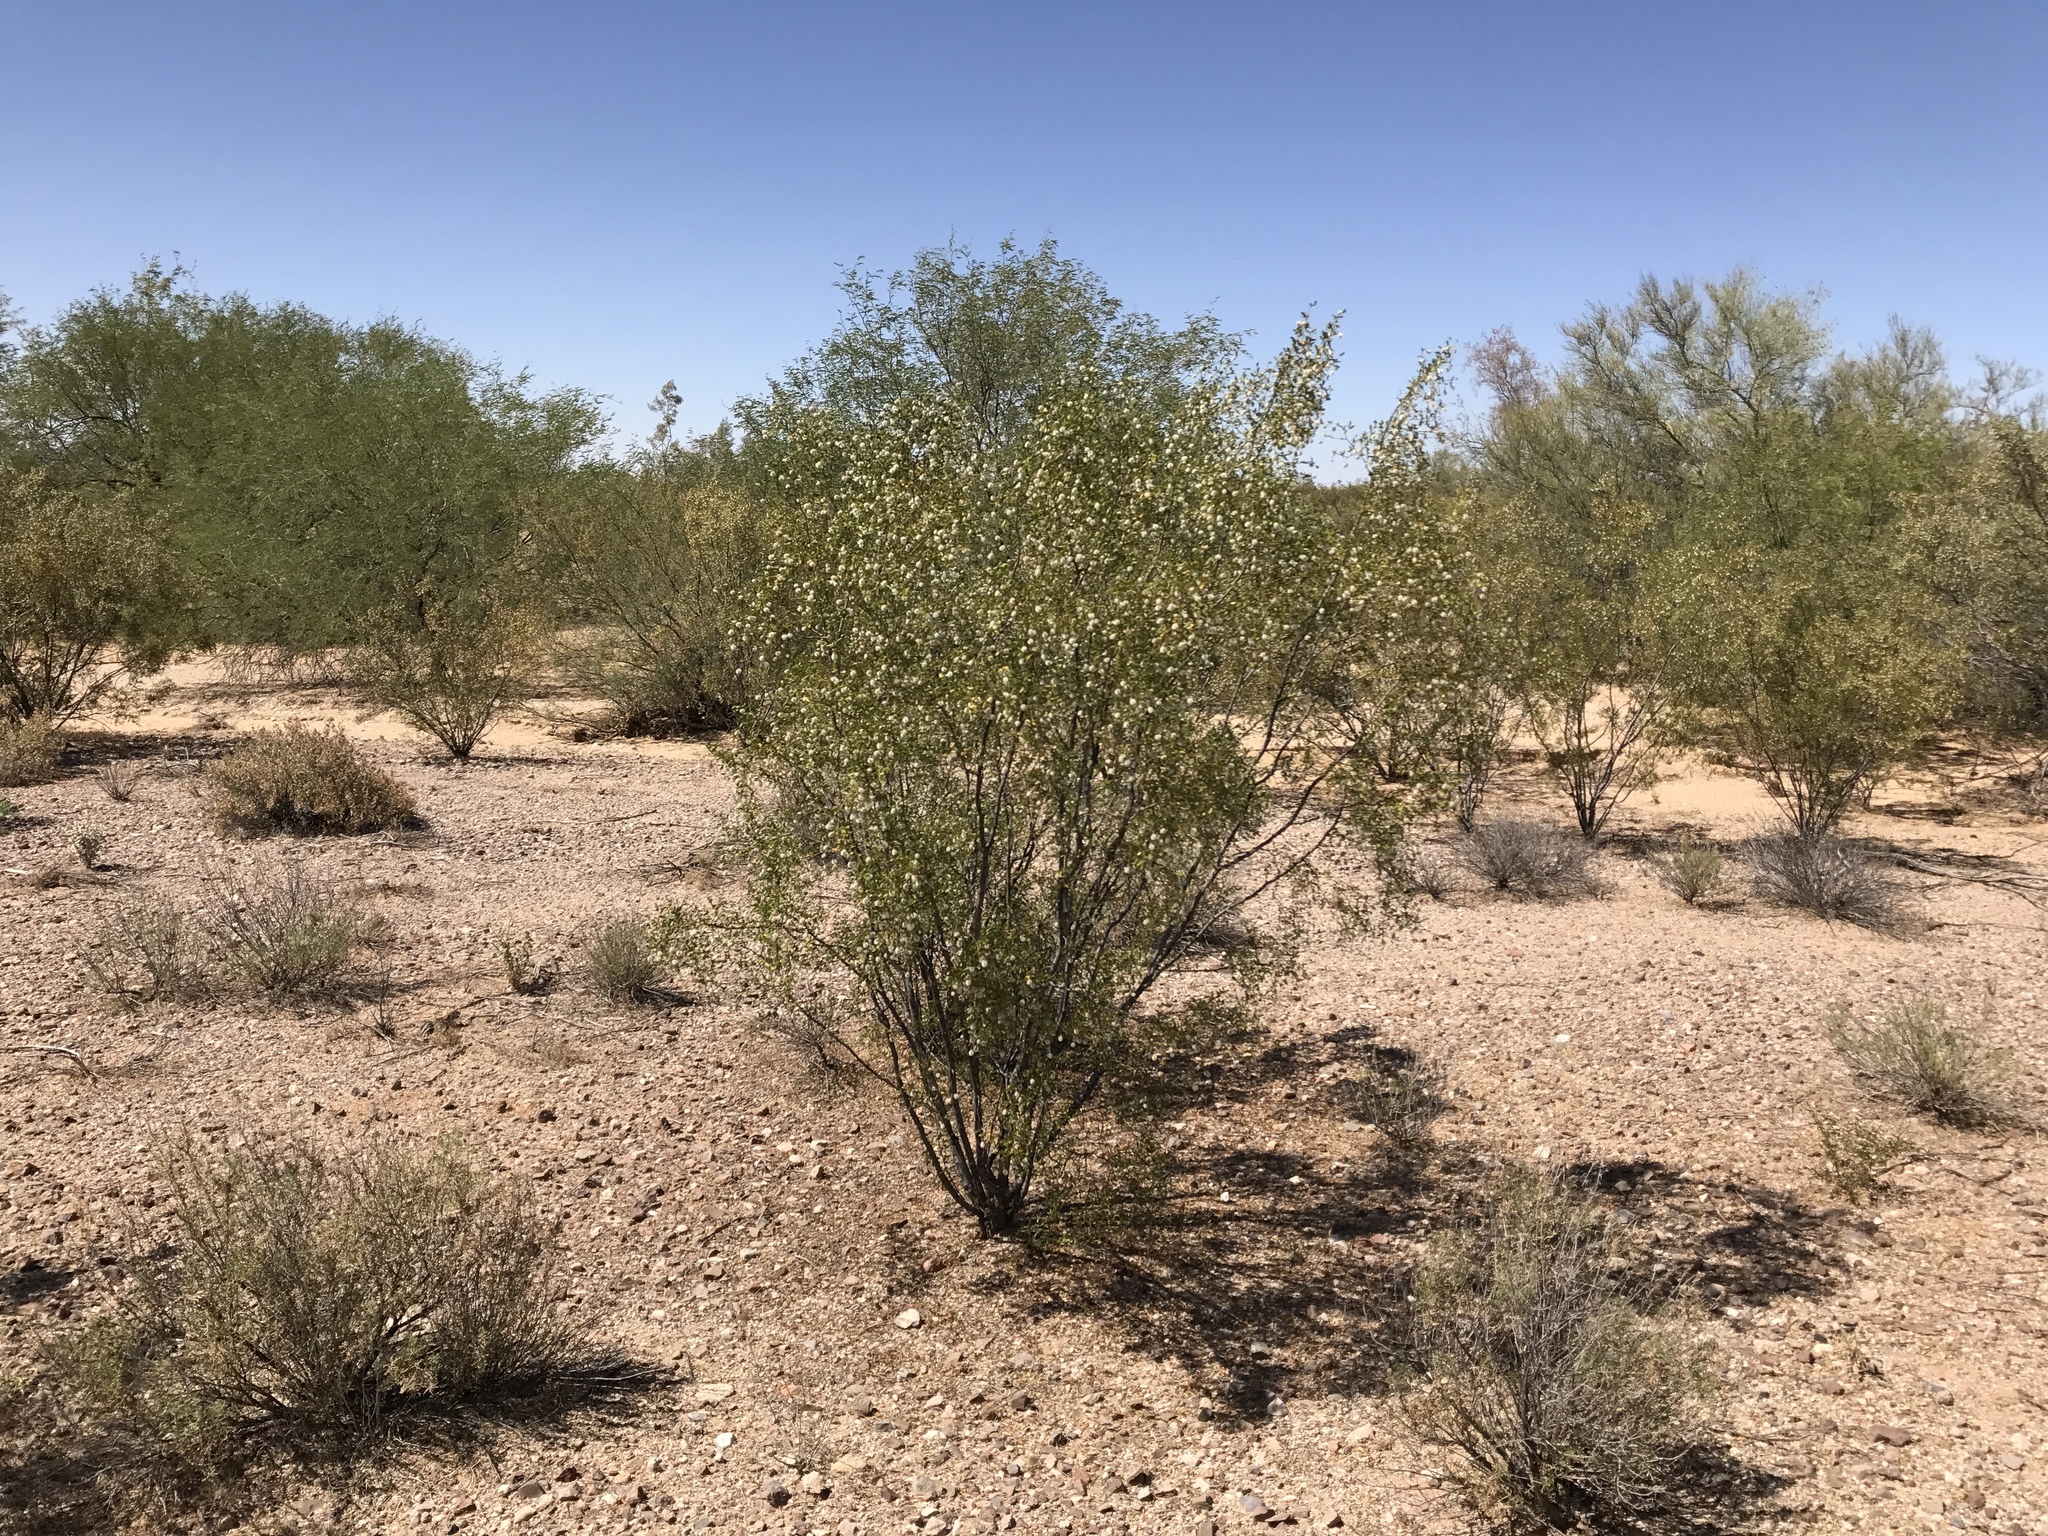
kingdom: Plantae
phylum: Tracheophyta
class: Magnoliopsida
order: Zygophyllales
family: Zygophyllaceae
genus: Larrea
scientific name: Larrea tridentata
